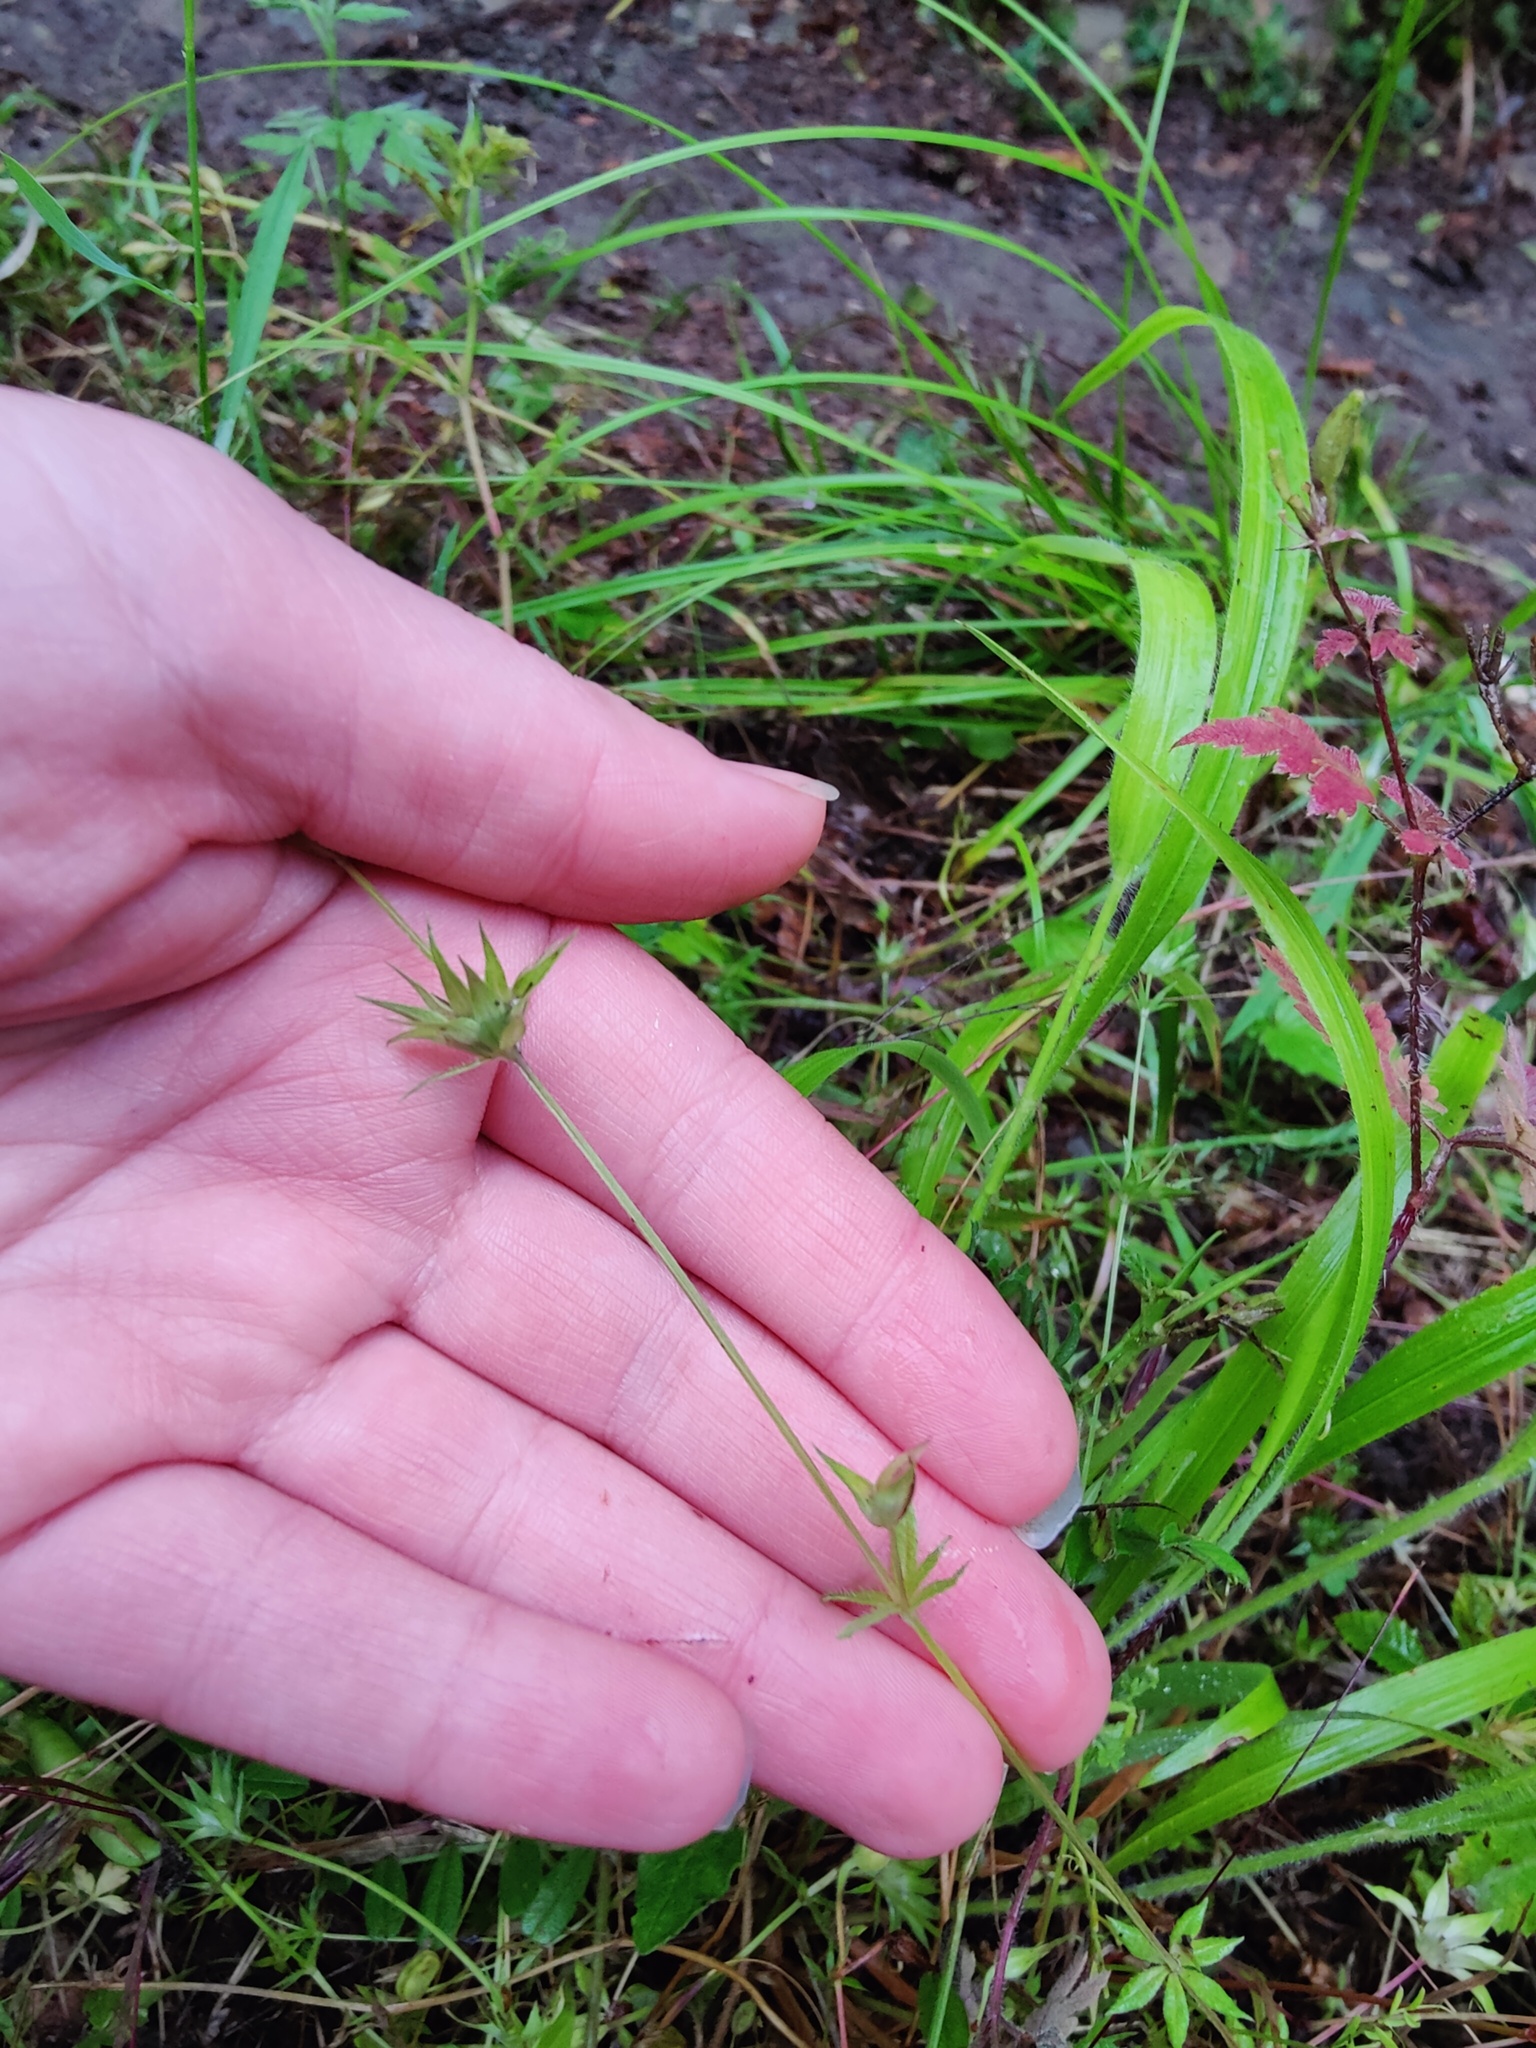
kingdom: Plantae
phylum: Tracheophyta
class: Magnoliopsida
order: Gentianales
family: Rubiaceae
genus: Sherardia
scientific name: Sherardia arvensis
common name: Field madder
